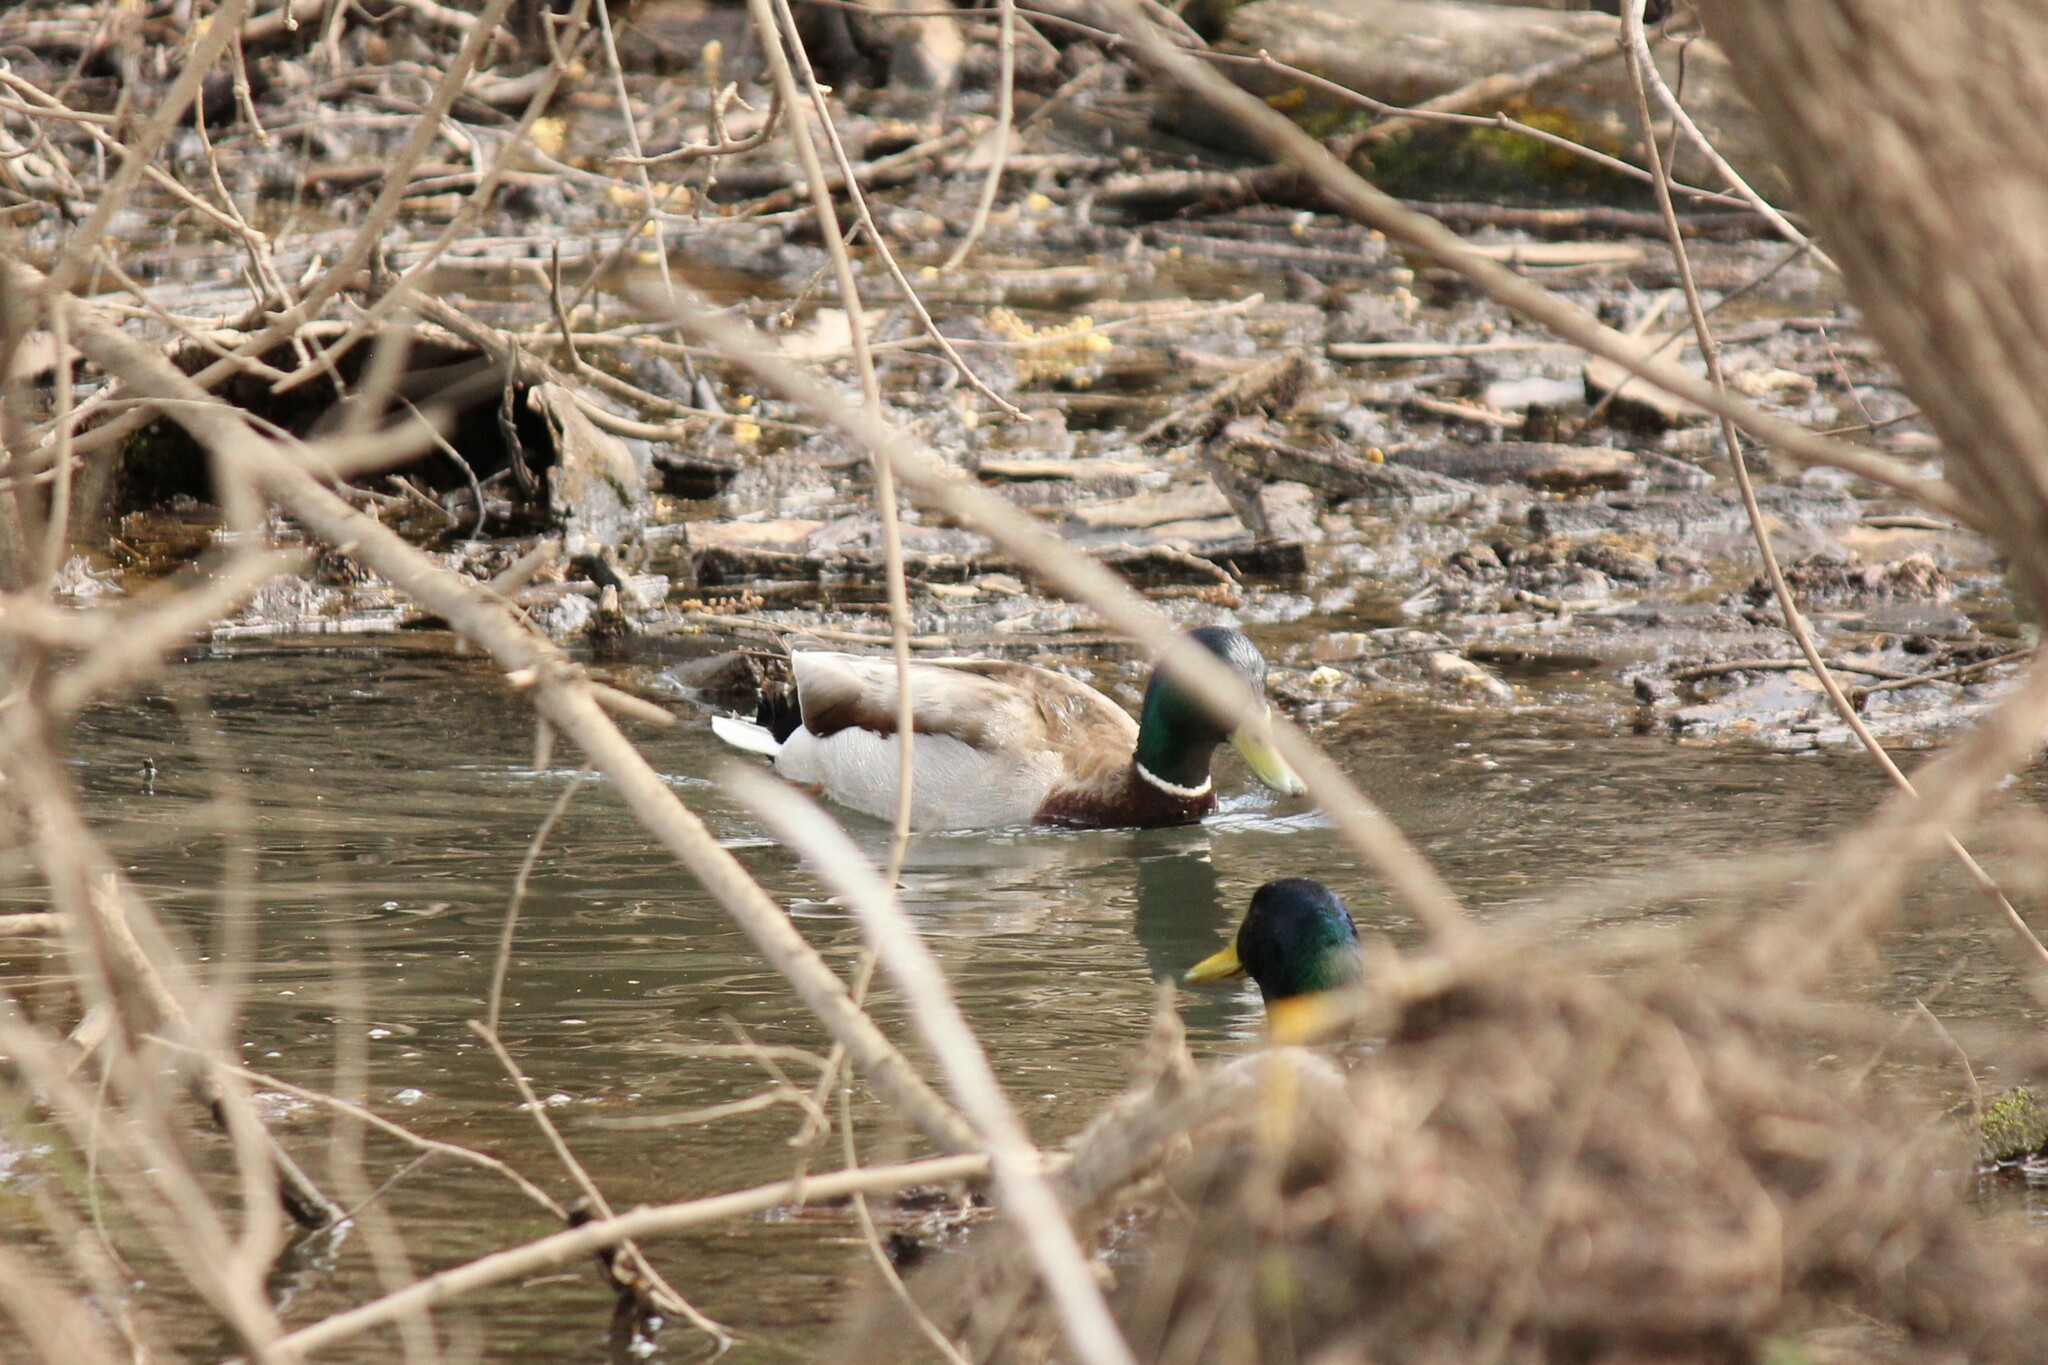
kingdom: Animalia
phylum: Chordata
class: Aves
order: Anseriformes
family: Anatidae
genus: Anas
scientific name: Anas platyrhynchos
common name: Mallard
